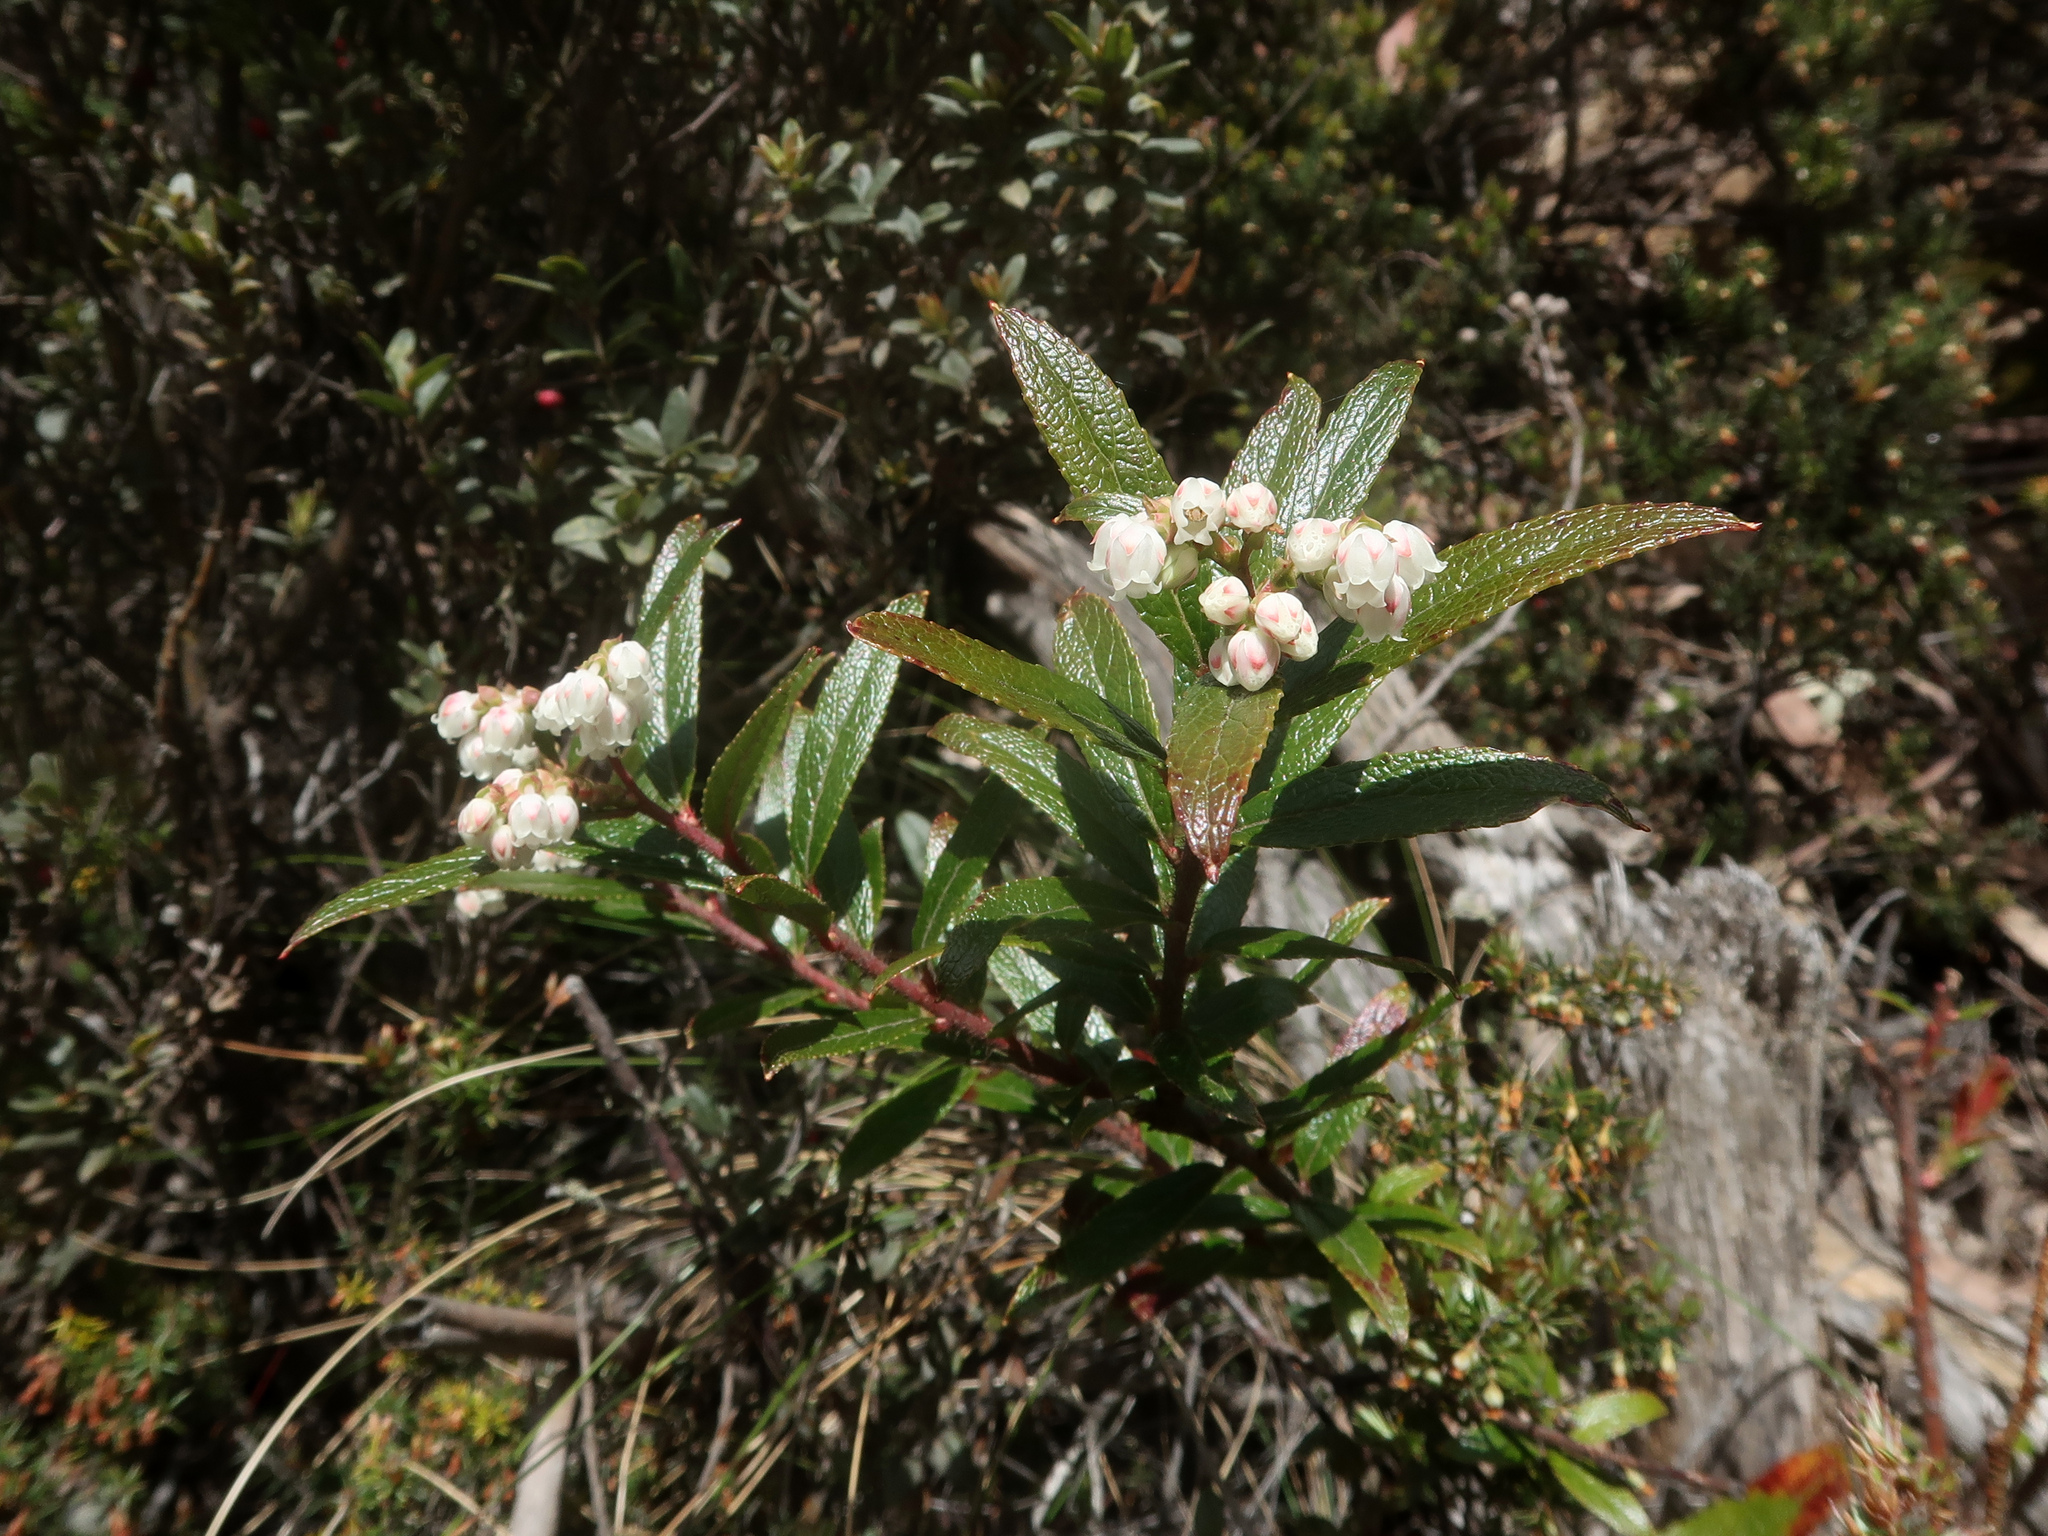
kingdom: Plantae
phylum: Tracheophyta
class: Magnoliopsida
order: Ericales
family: Ericaceae
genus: Gaultheria
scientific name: Gaultheria hispida
